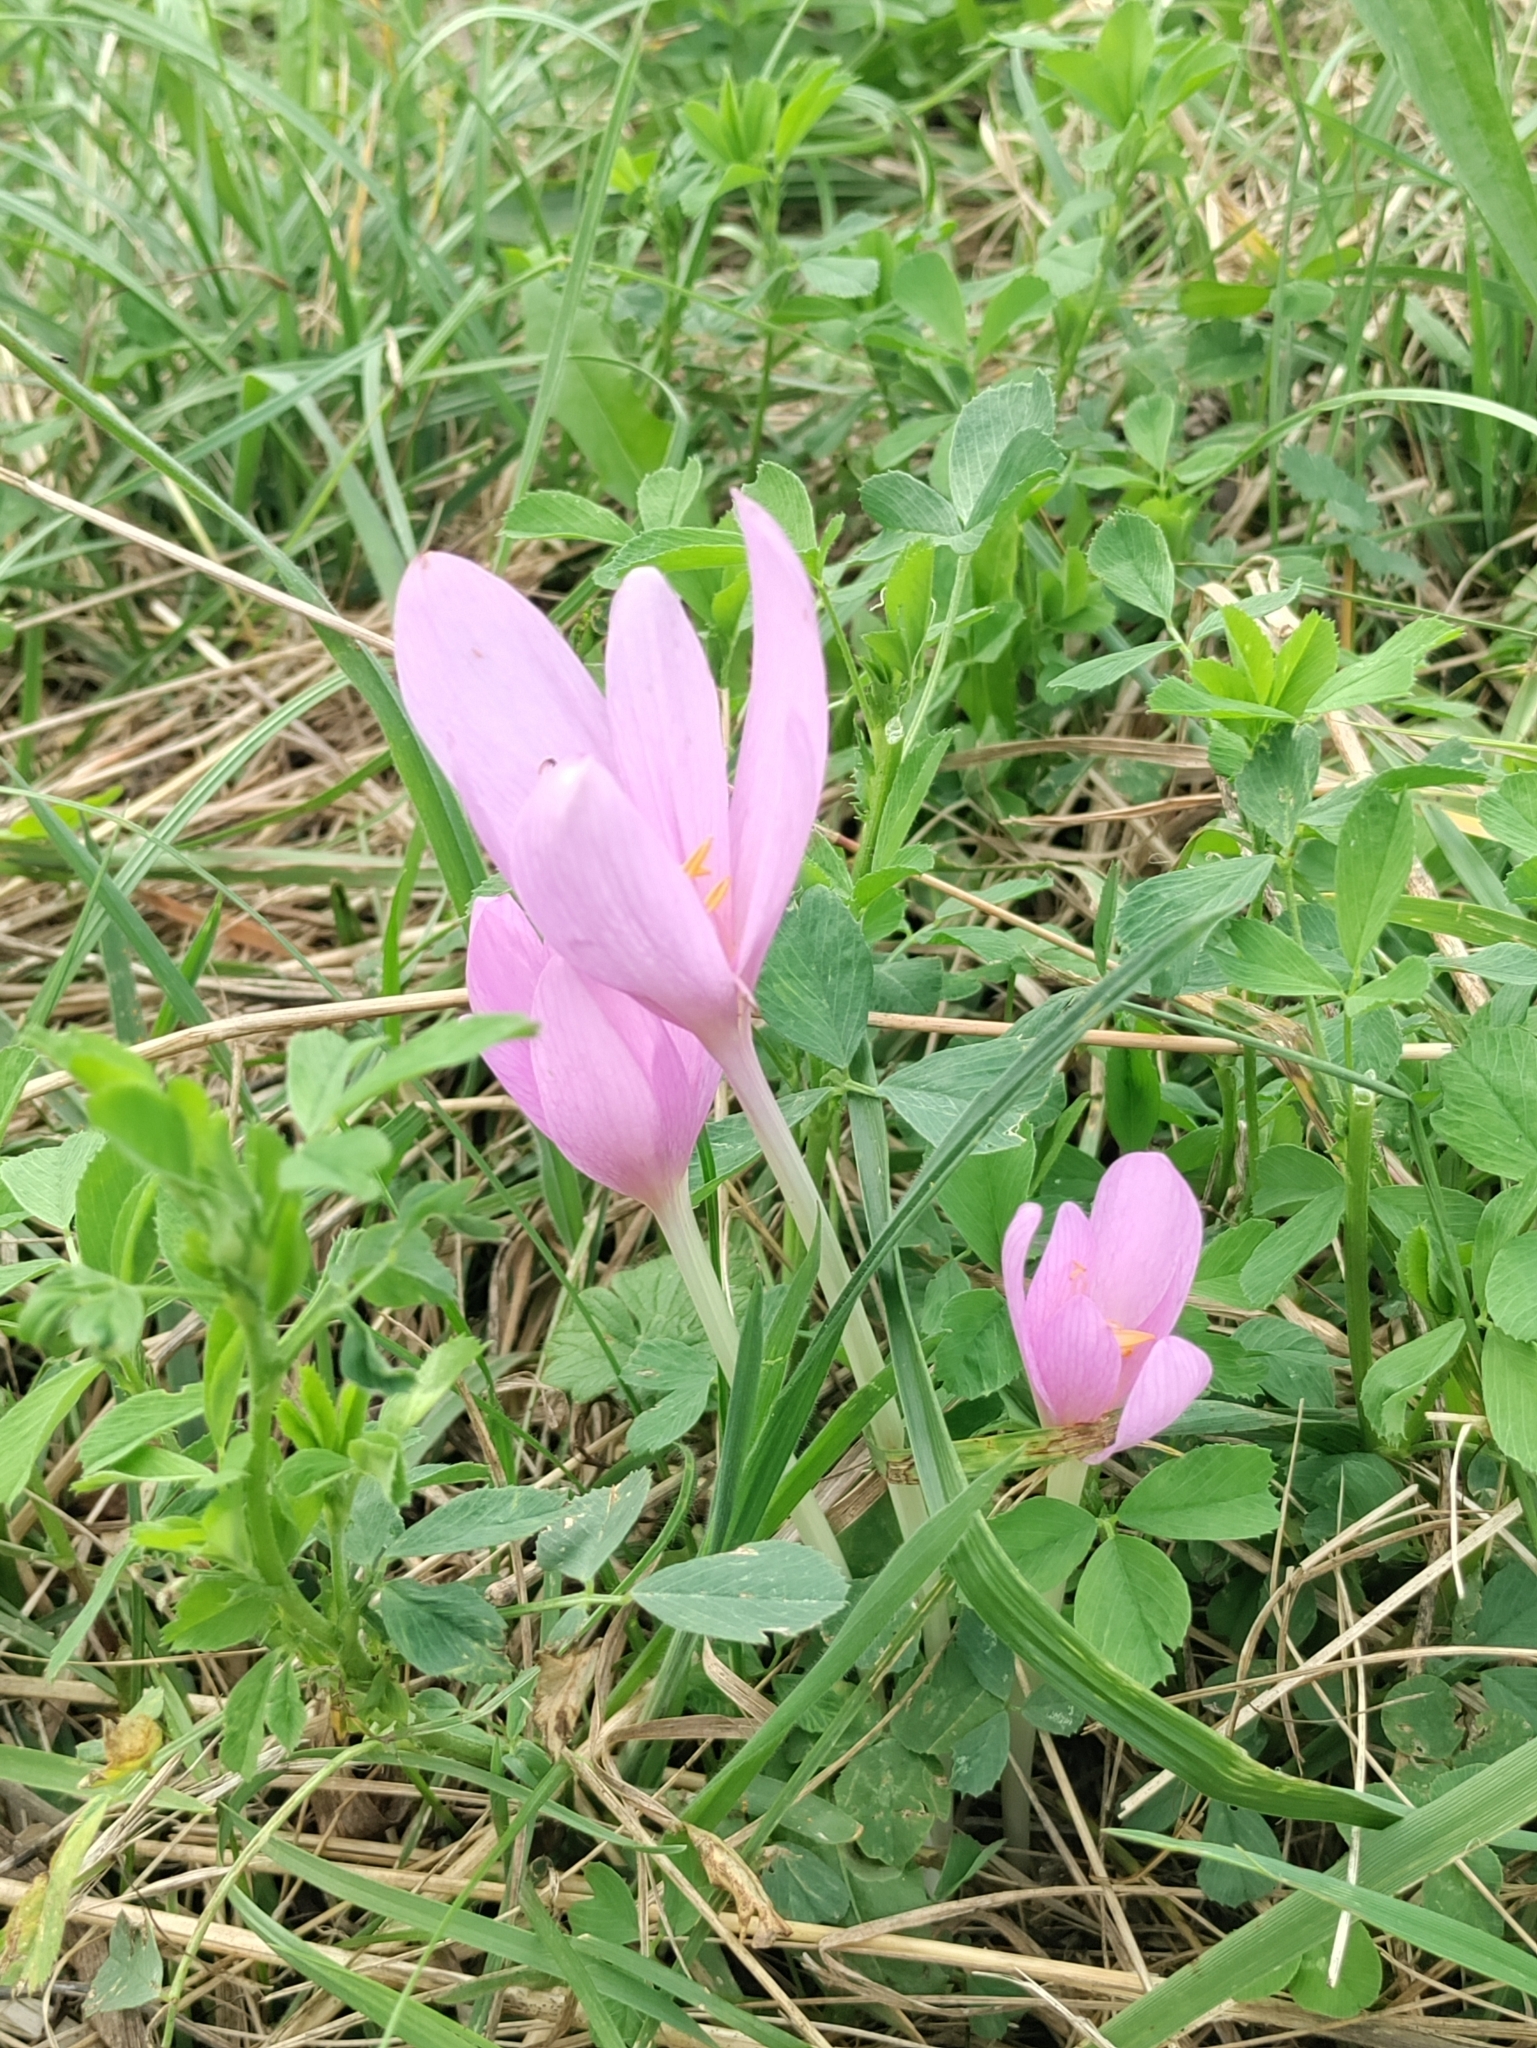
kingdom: Plantae
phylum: Tracheophyta
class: Liliopsida
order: Liliales
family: Colchicaceae
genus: Colchicum
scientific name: Colchicum autumnale
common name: Autumn crocus
